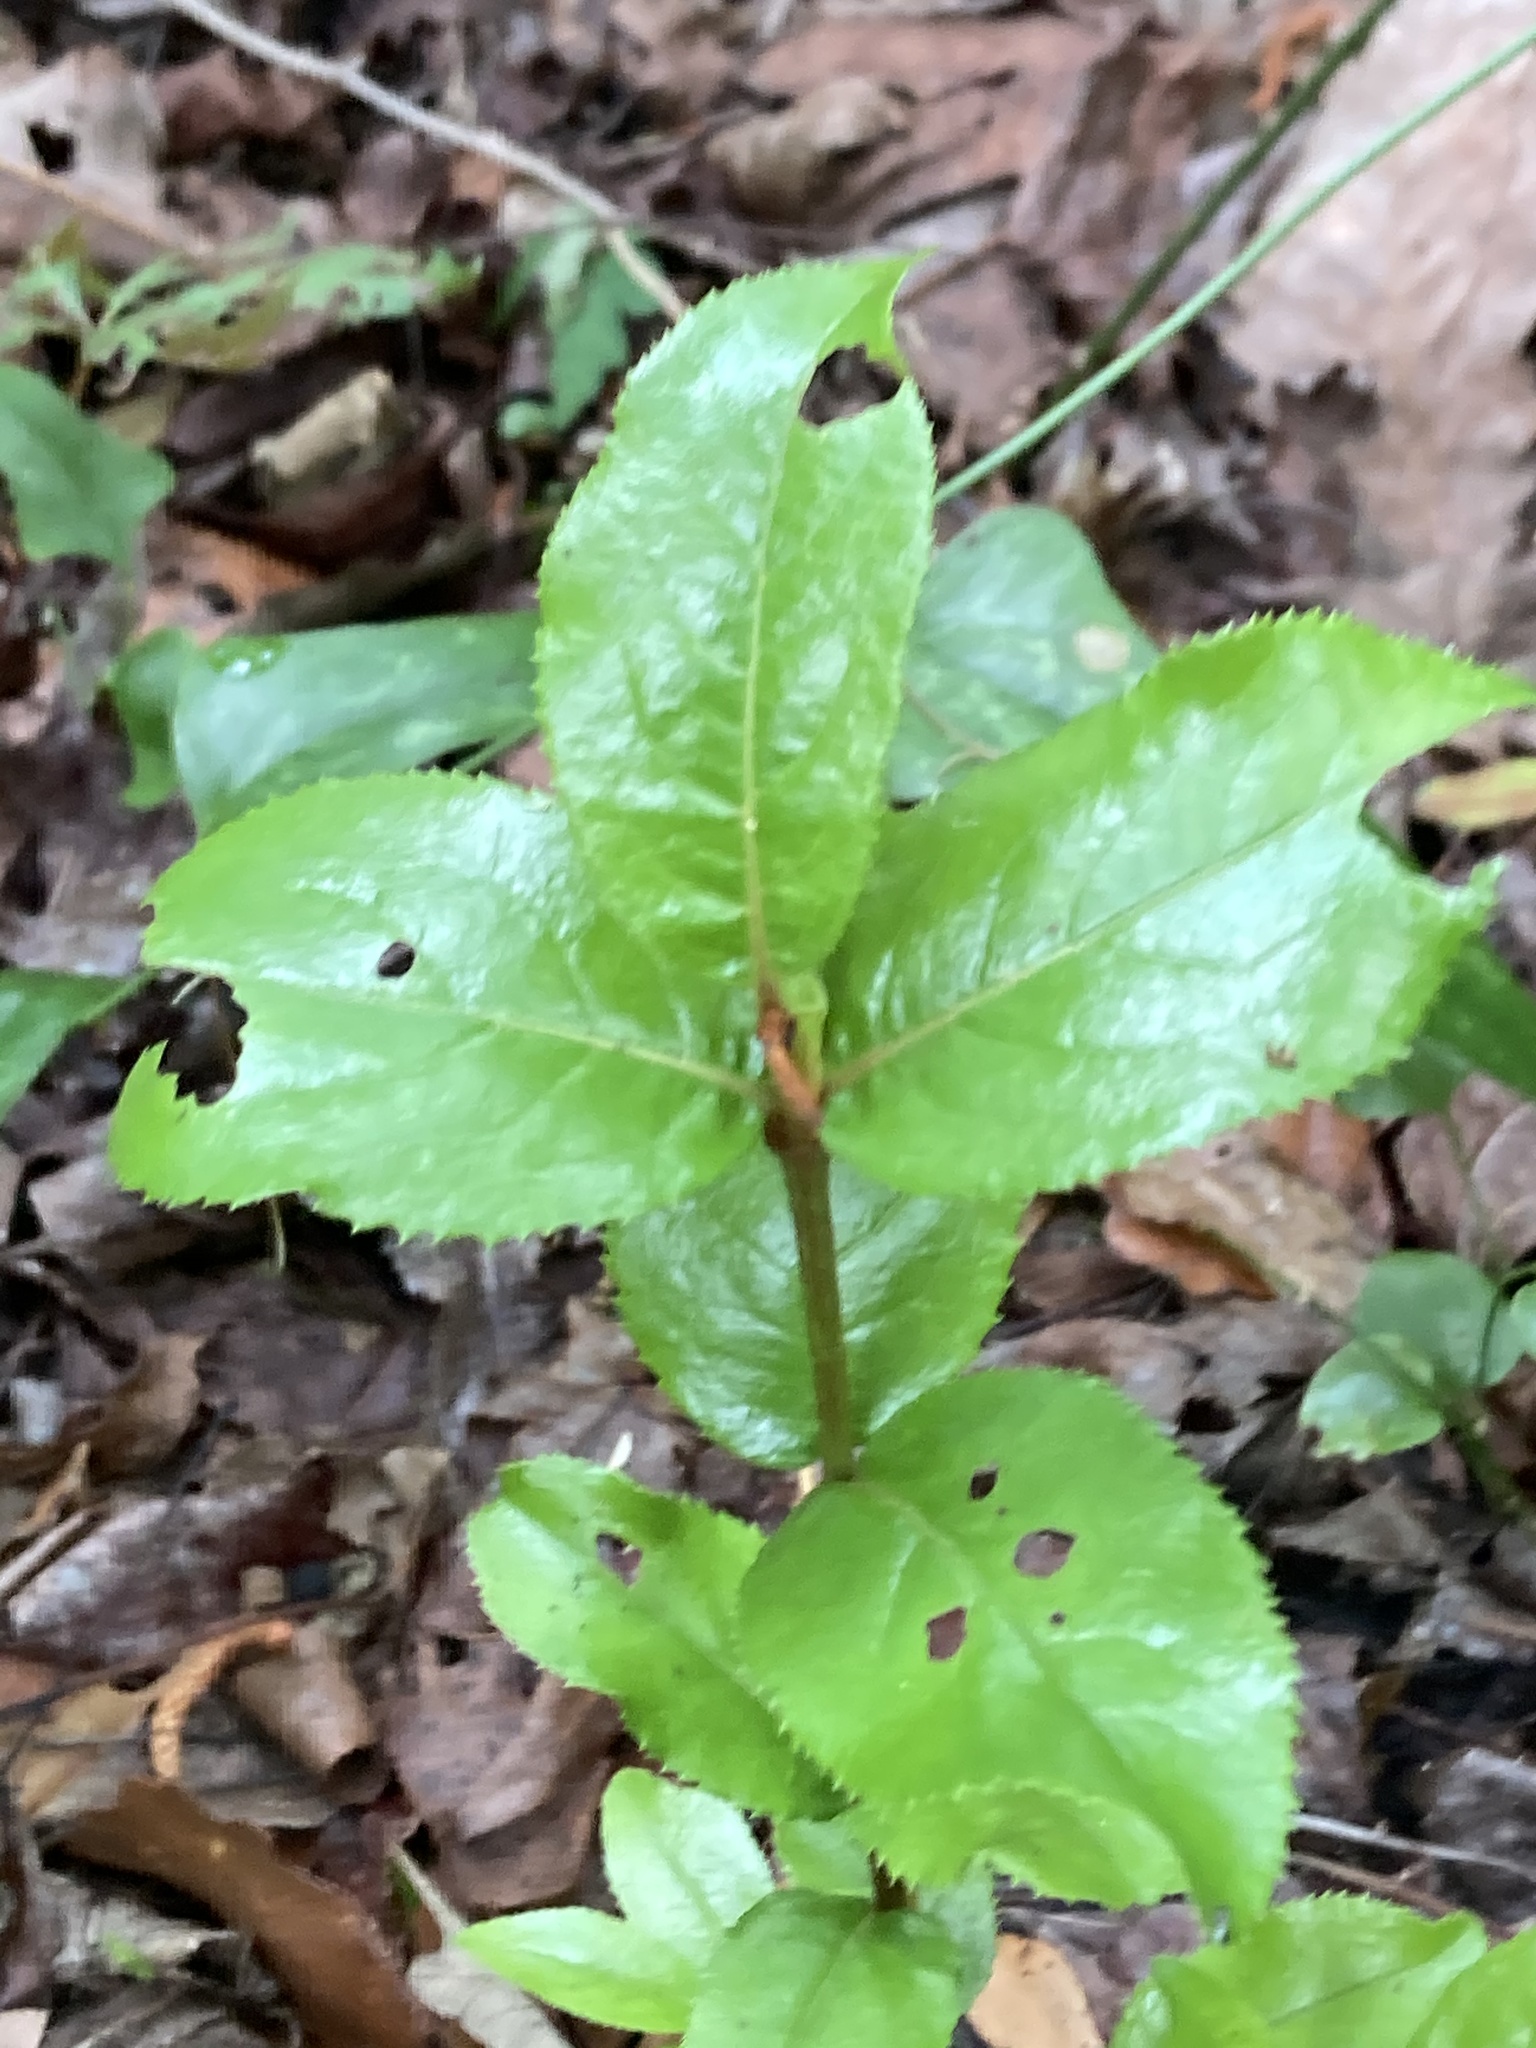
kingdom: Plantae
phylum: Tracheophyta
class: Magnoliopsida
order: Dipsacales
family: Viburnaceae
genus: Viburnum
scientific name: Viburnum rufidulum
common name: Blue haw
